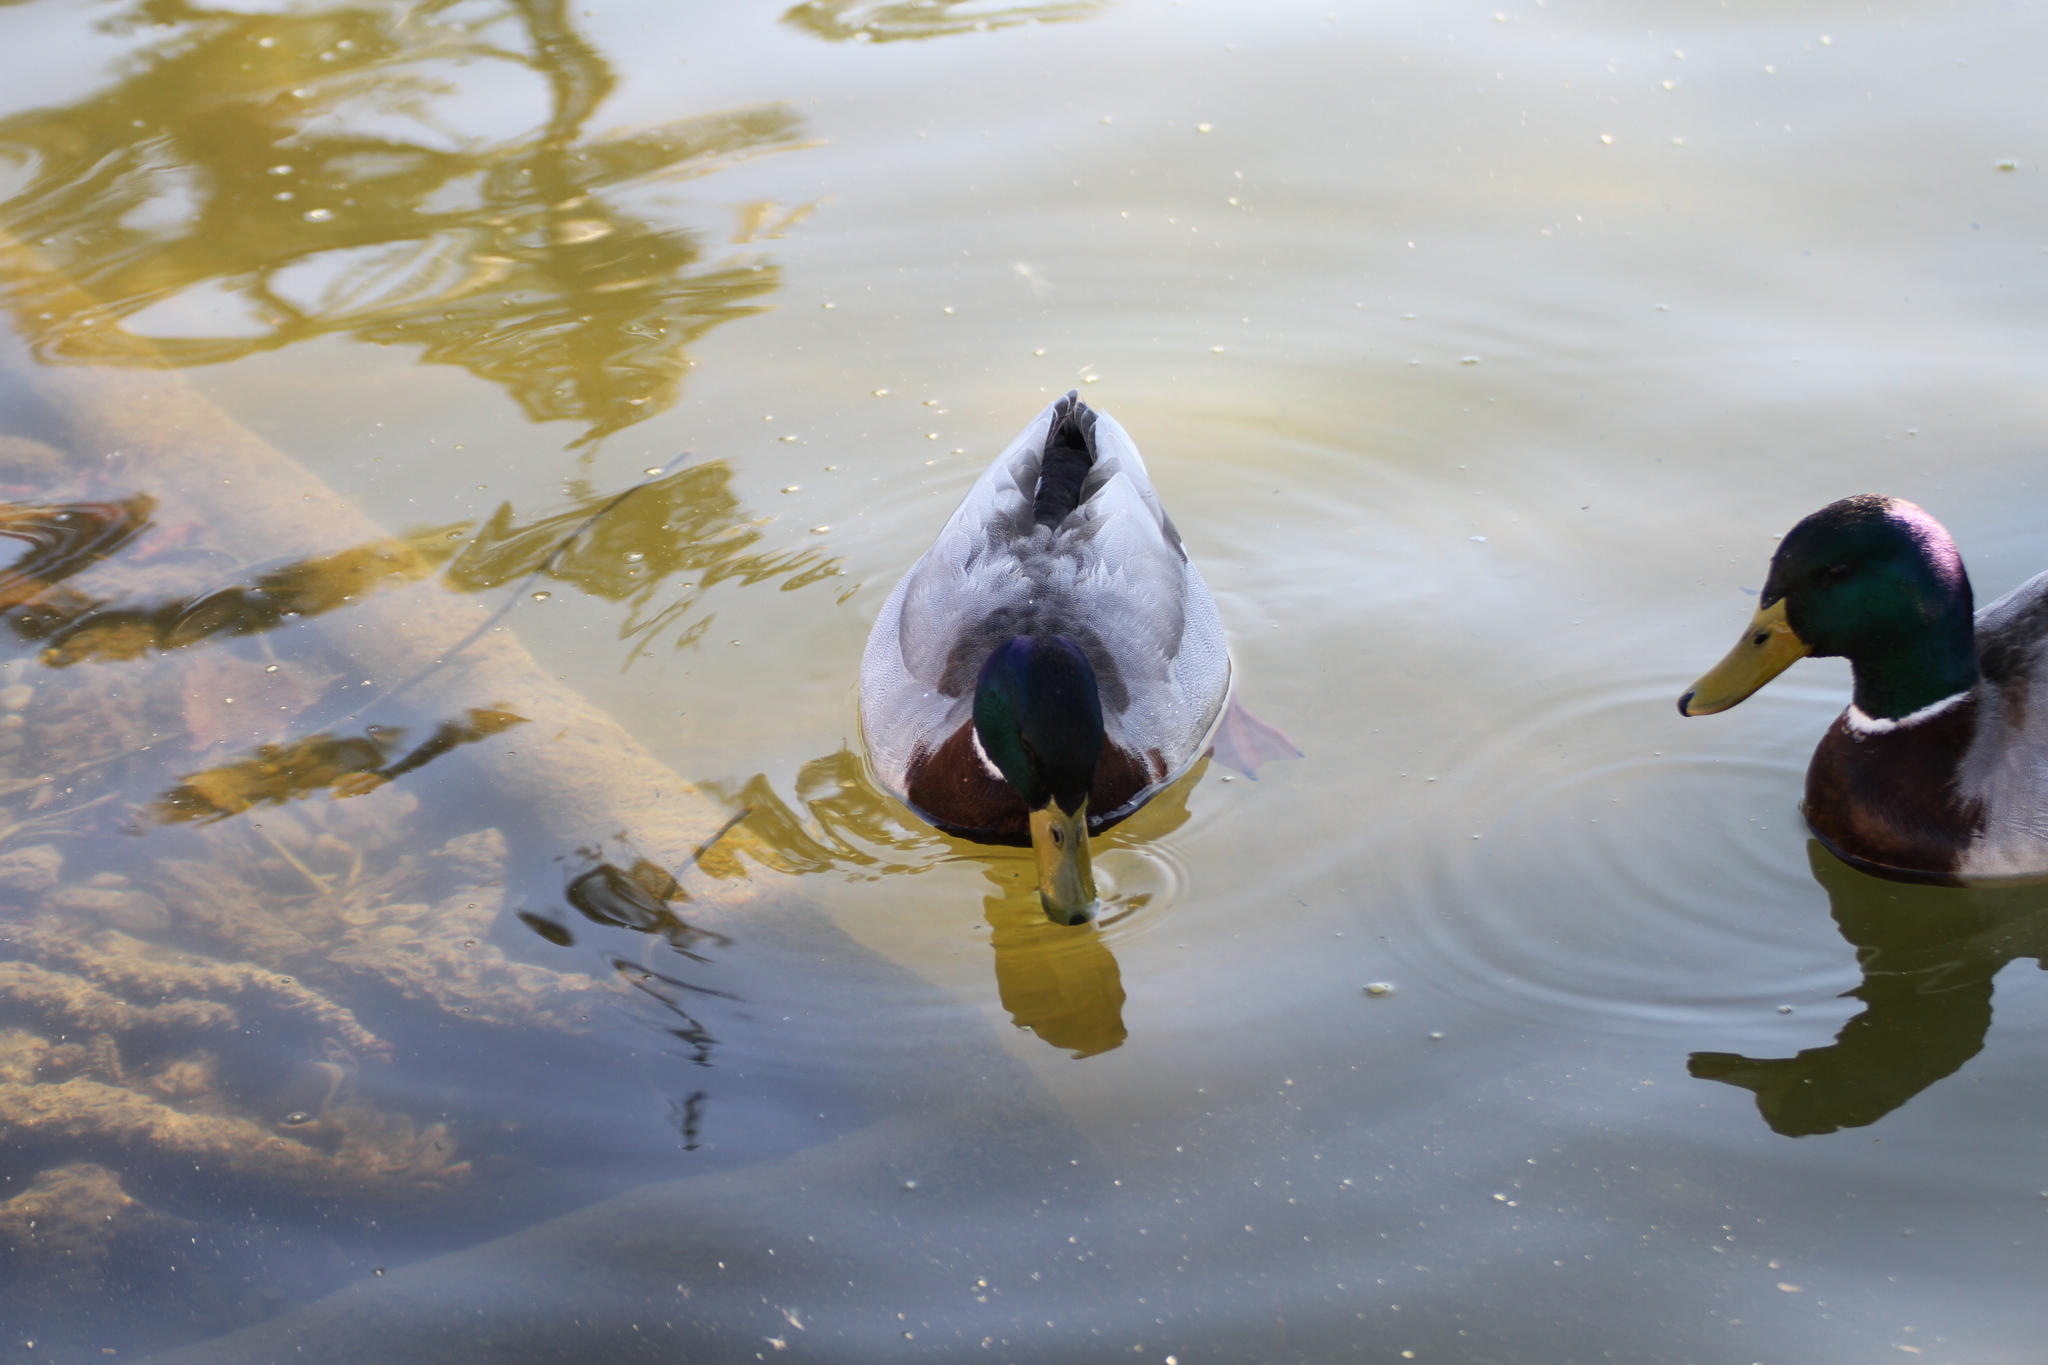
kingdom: Animalia
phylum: Chordata
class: Aves
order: Anseriformes
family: Anatidae
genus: Anas
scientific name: Anas platyrhynchos
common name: Mallard
